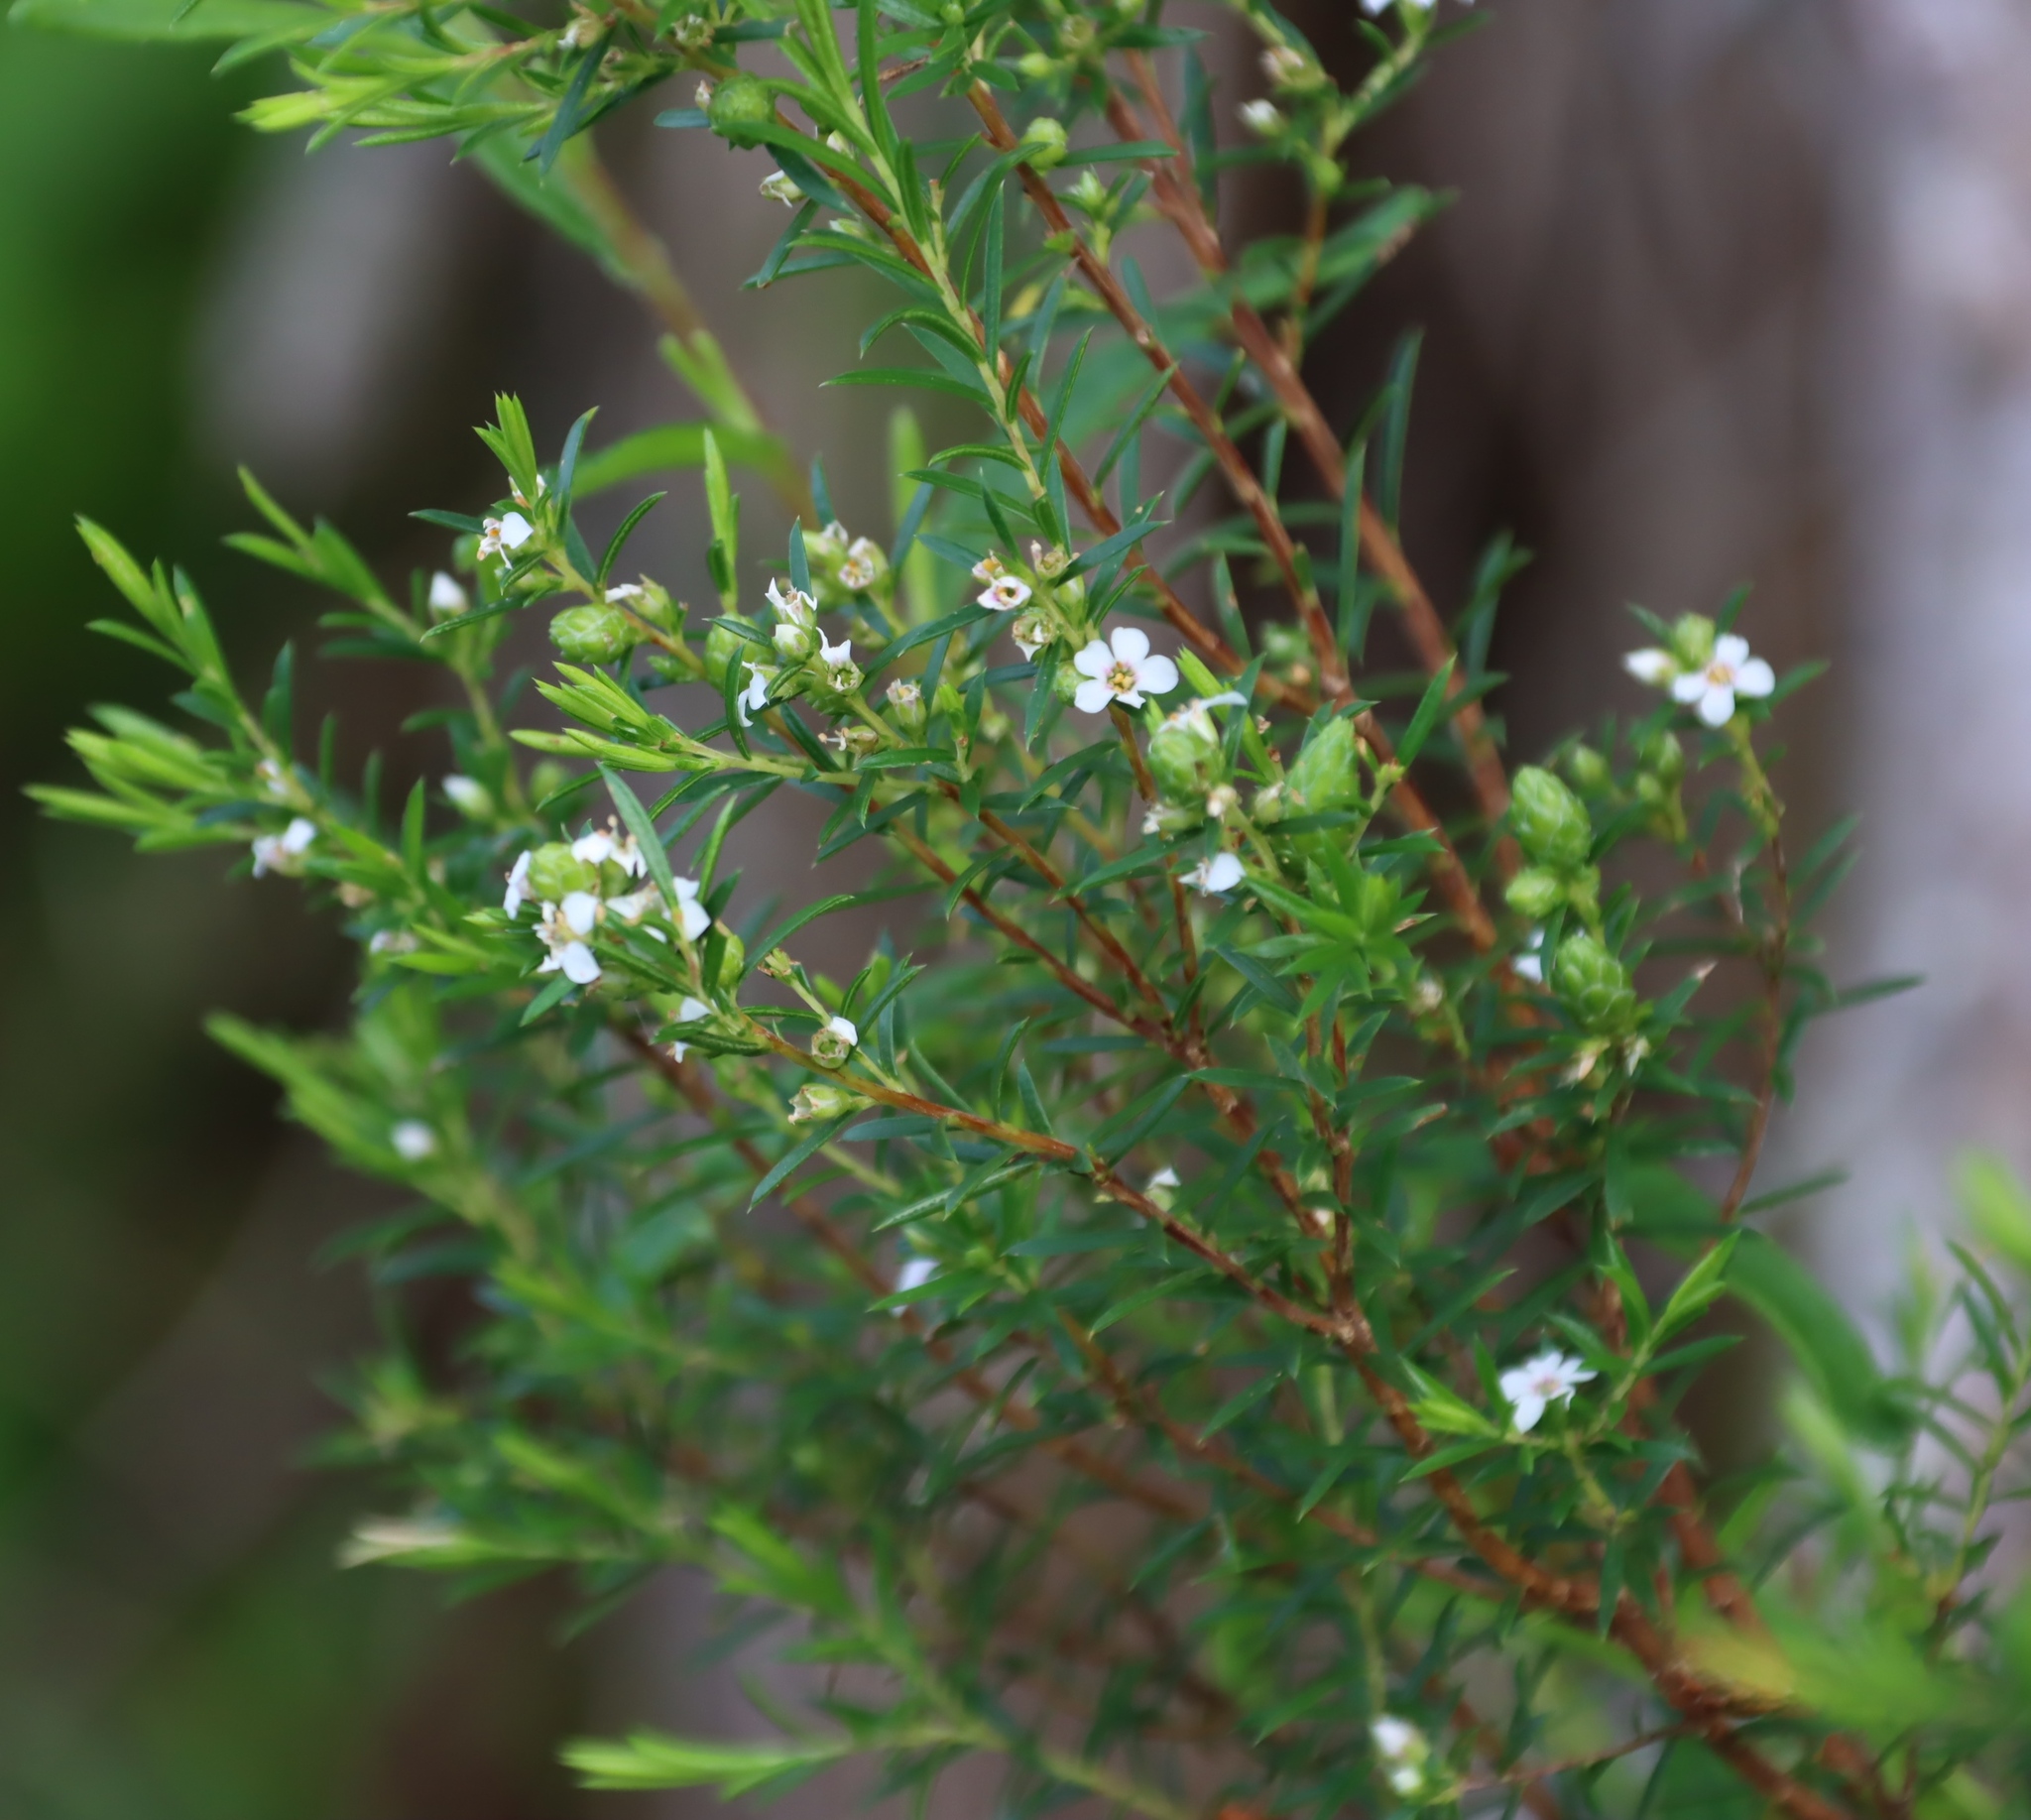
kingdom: Plantae
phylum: Tracheophyta
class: Magnoliopsida
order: Sapindales
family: Rutaceae
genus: Coleonema
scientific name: Coleonema album
